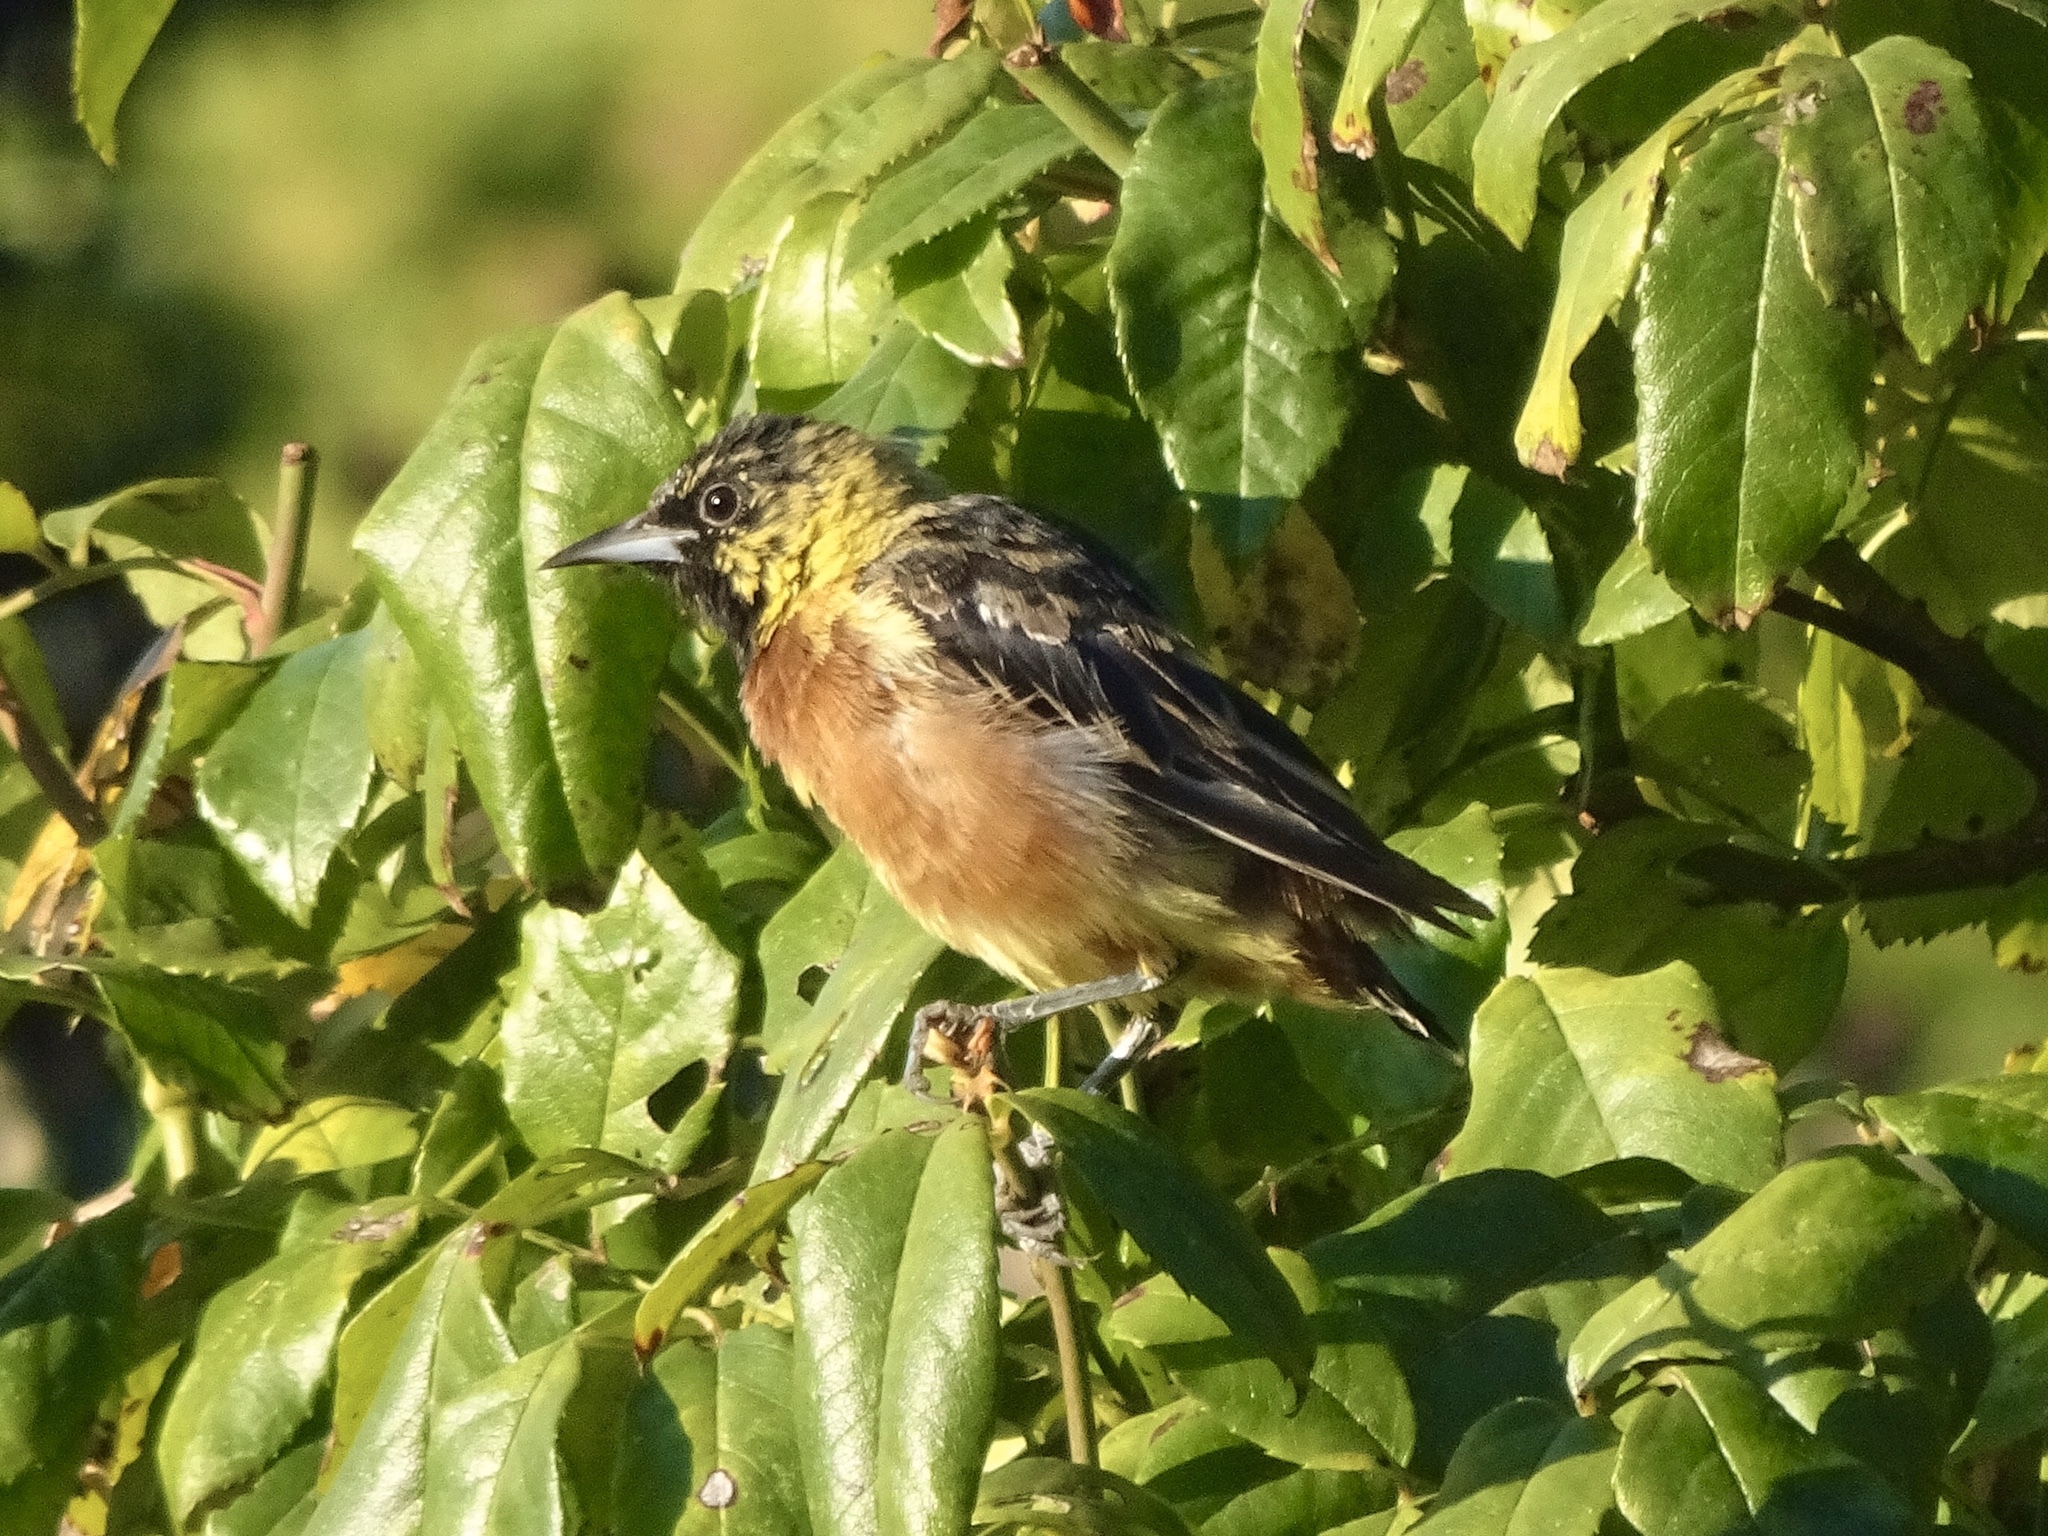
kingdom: Animalia
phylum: Chordata
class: Aves
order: Passeriformes
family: Icteridae
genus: Icterus
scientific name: Icterus spurius
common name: Orchard oriole
